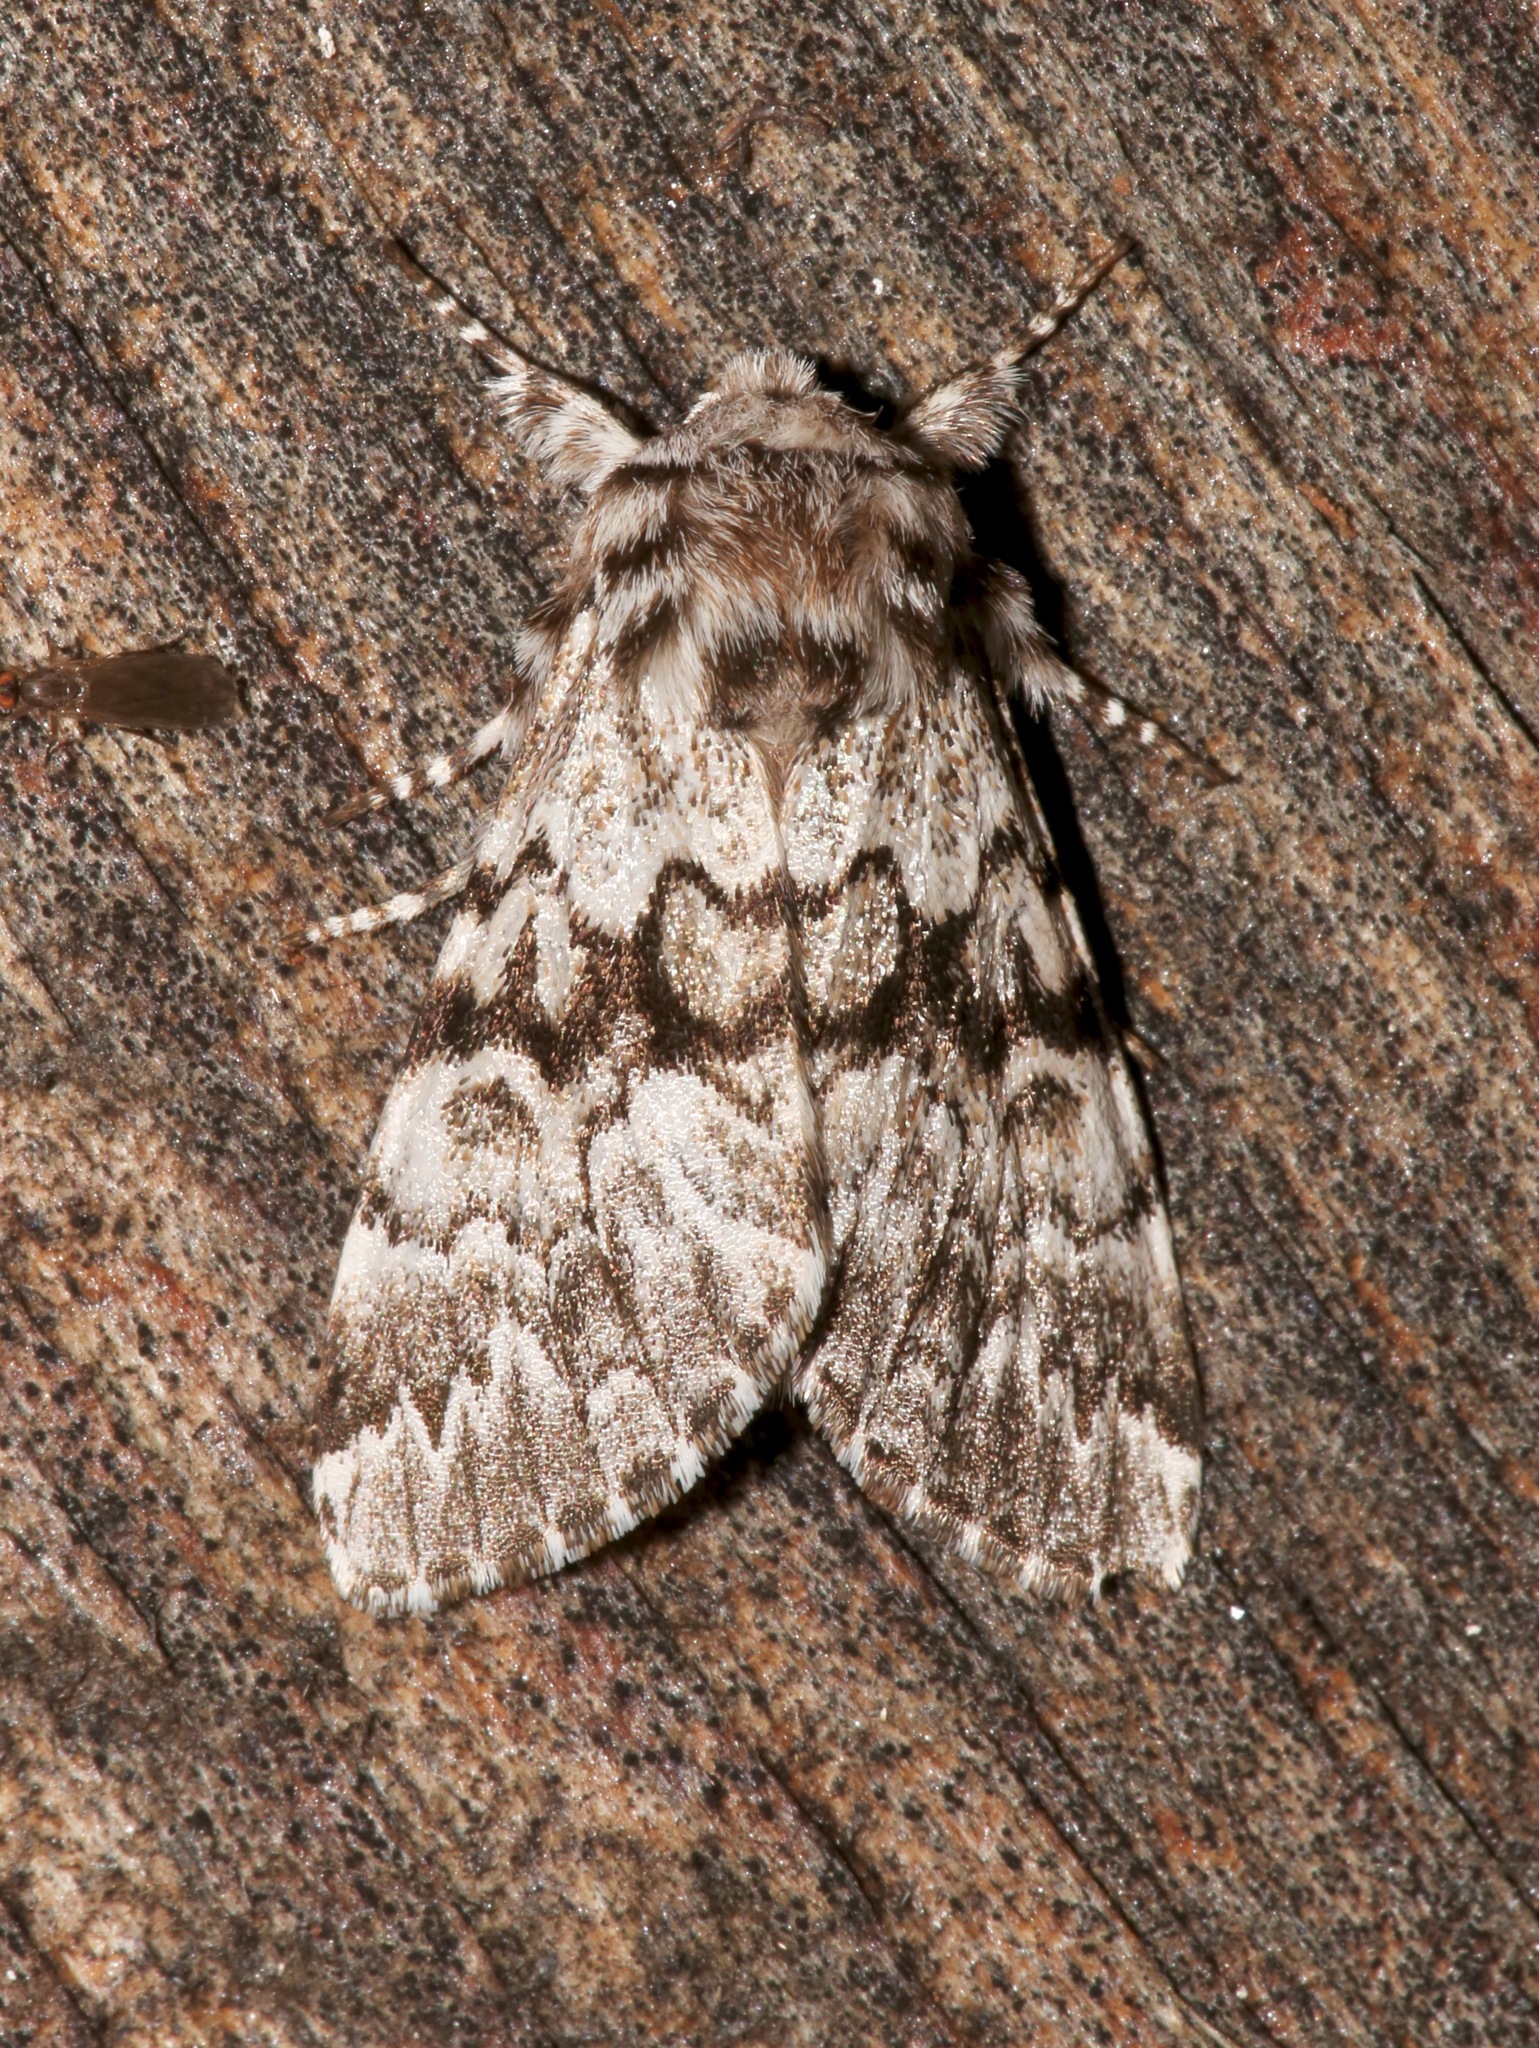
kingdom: Animalia
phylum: Arthropoda
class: Insecta
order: Lepidoptera
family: Noctuidae
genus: Panthea
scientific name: Panthea acronyctoides
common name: Black zigzag moth
